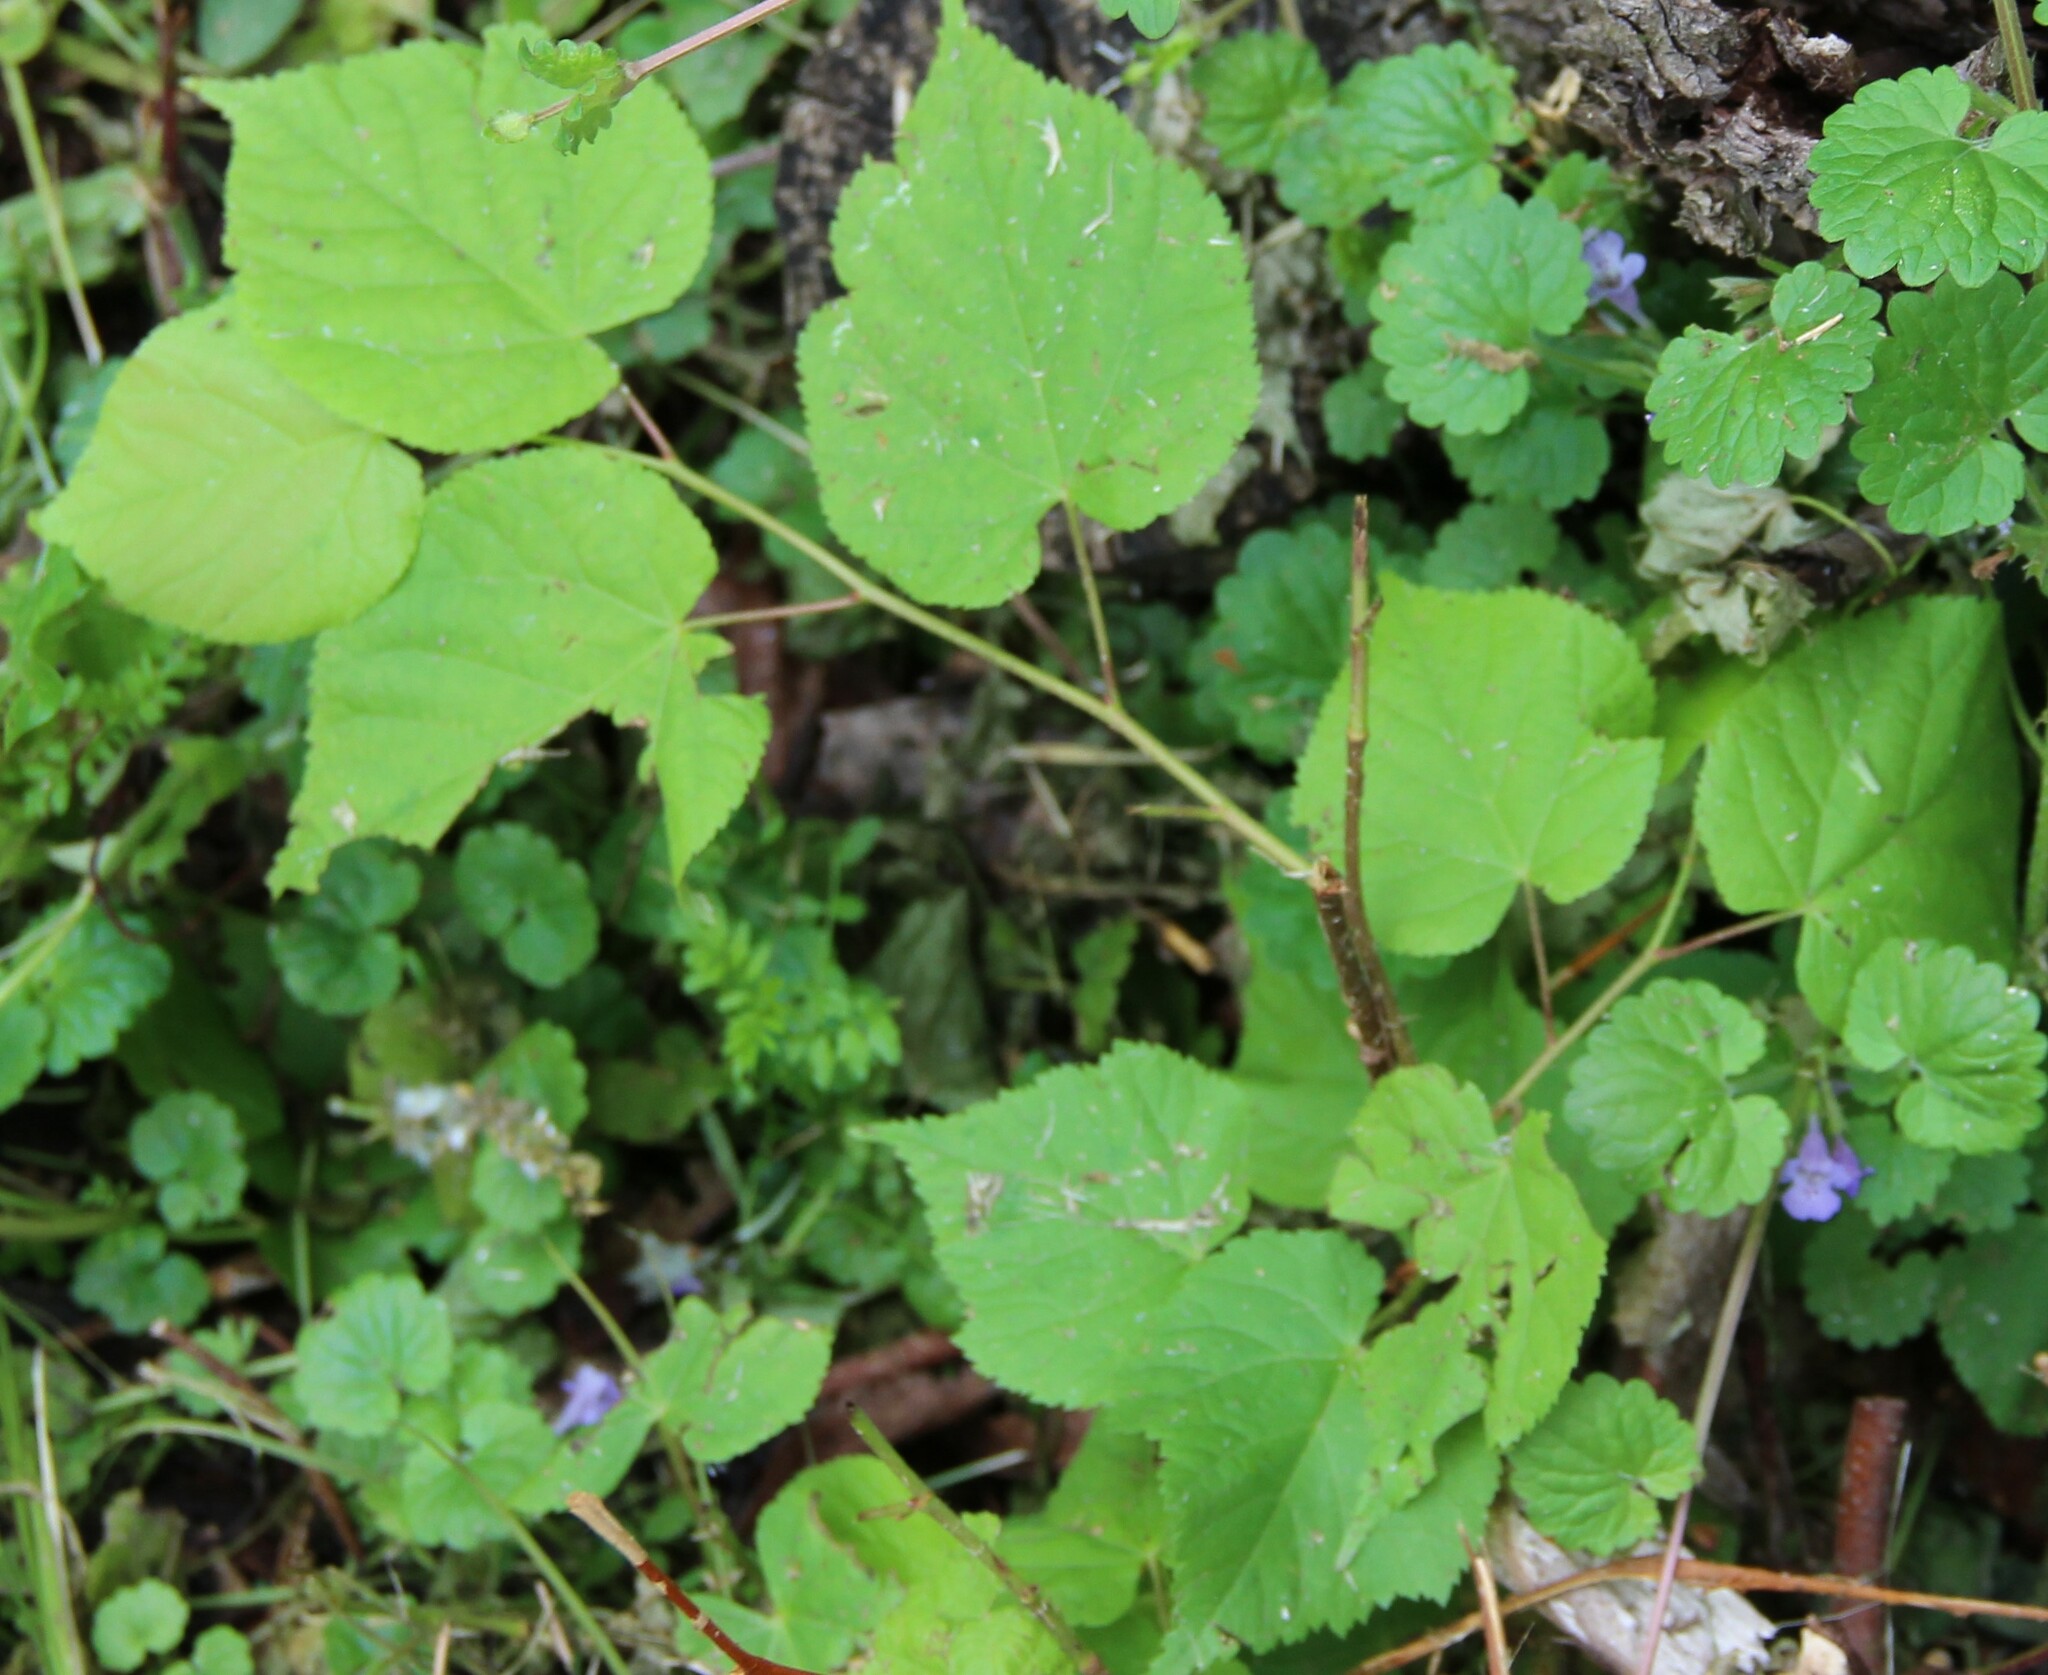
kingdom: Plantae
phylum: Tracheophyta
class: Magnoliopsida
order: Malvales
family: Malvaceae
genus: Tilia
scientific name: Tilia cordata
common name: Small-leaved lime
